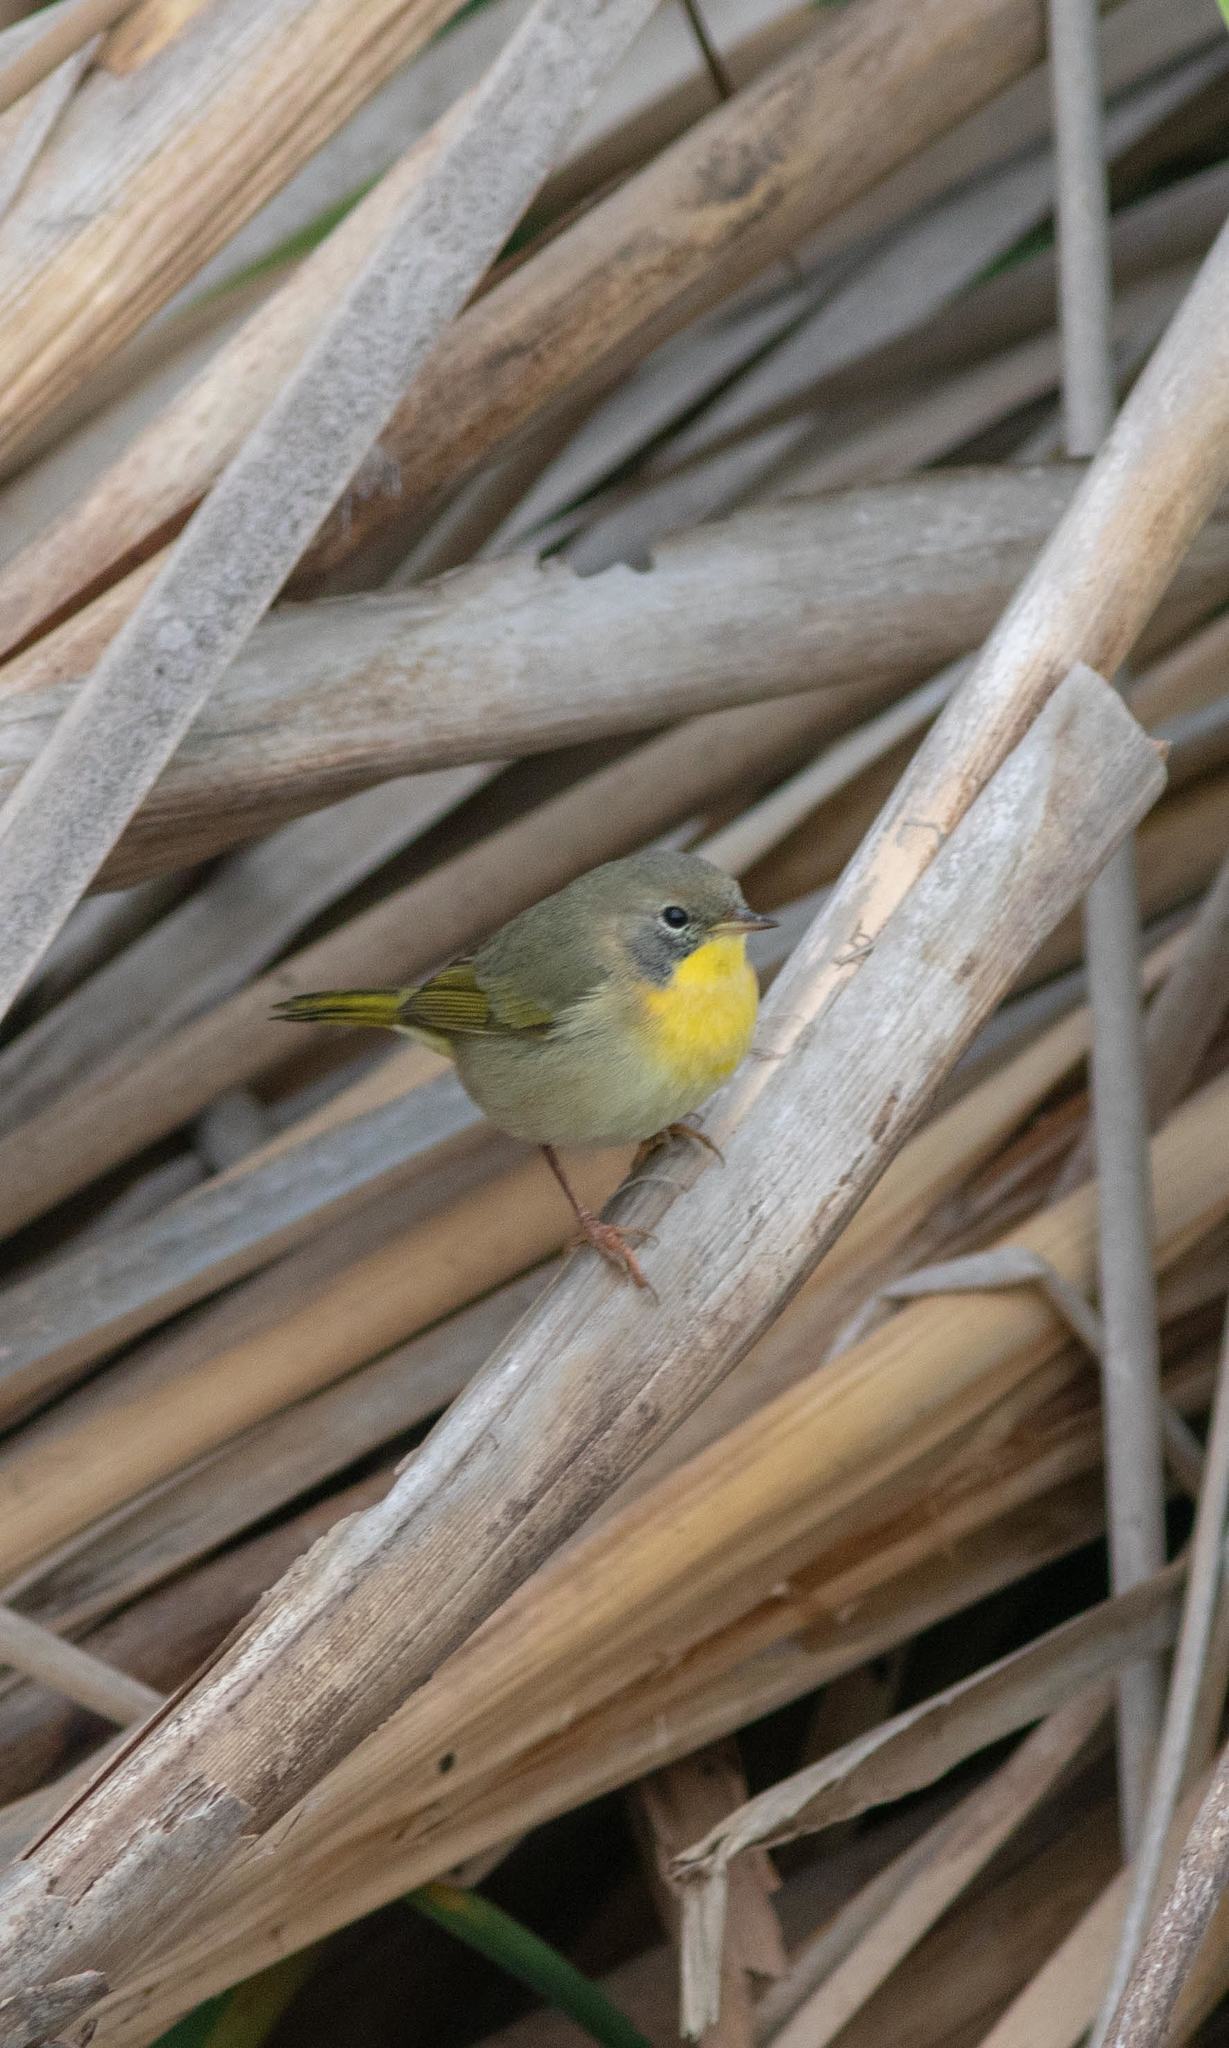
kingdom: Animalia
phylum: Chordata
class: Aves
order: Passeriformes
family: Parulidae
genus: Geothlypis
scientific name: Geothlypis trichas
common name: Common yellowthroat
